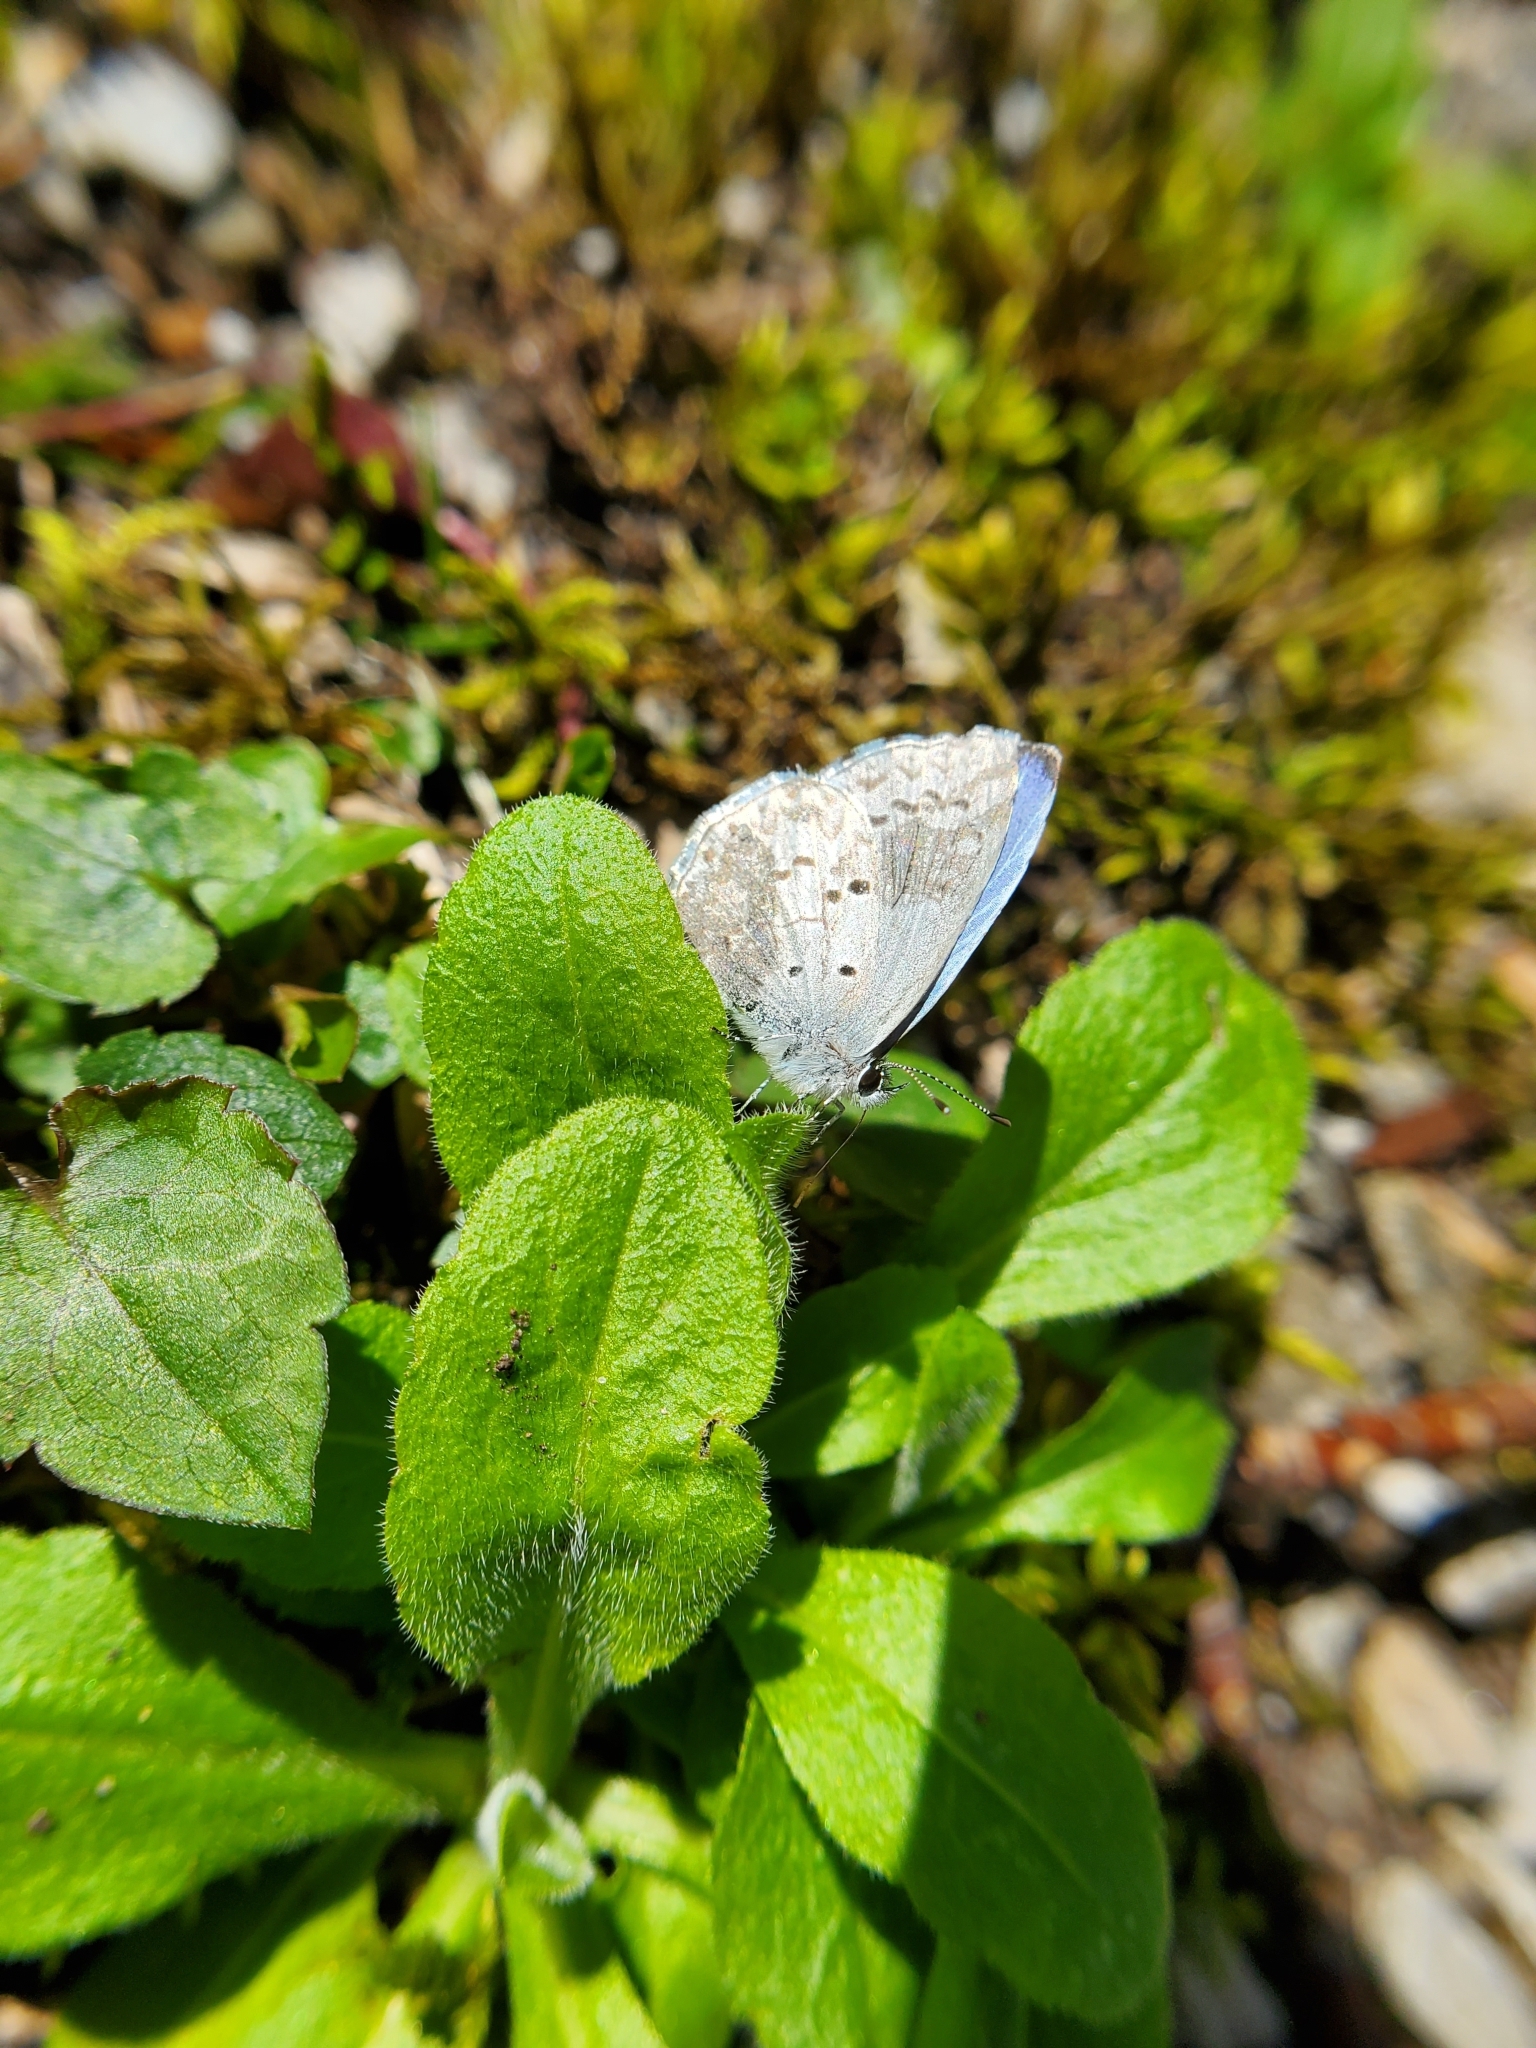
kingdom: Animalia
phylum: Arthropoda
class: Insecta
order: Lepidoptera
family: Lycaenidae
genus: Celastrina
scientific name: Celastrina ladon
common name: Spring azure
